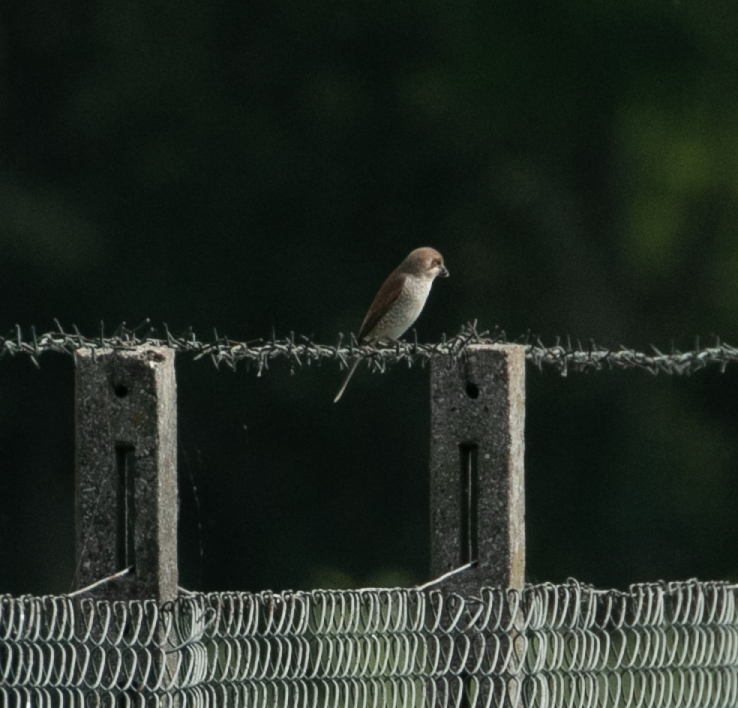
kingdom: Animalia
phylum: Chordata
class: Aves
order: Passeriformes
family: Laniidae
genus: Lanius
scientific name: Lanius collurio
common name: Red-backed shrike
